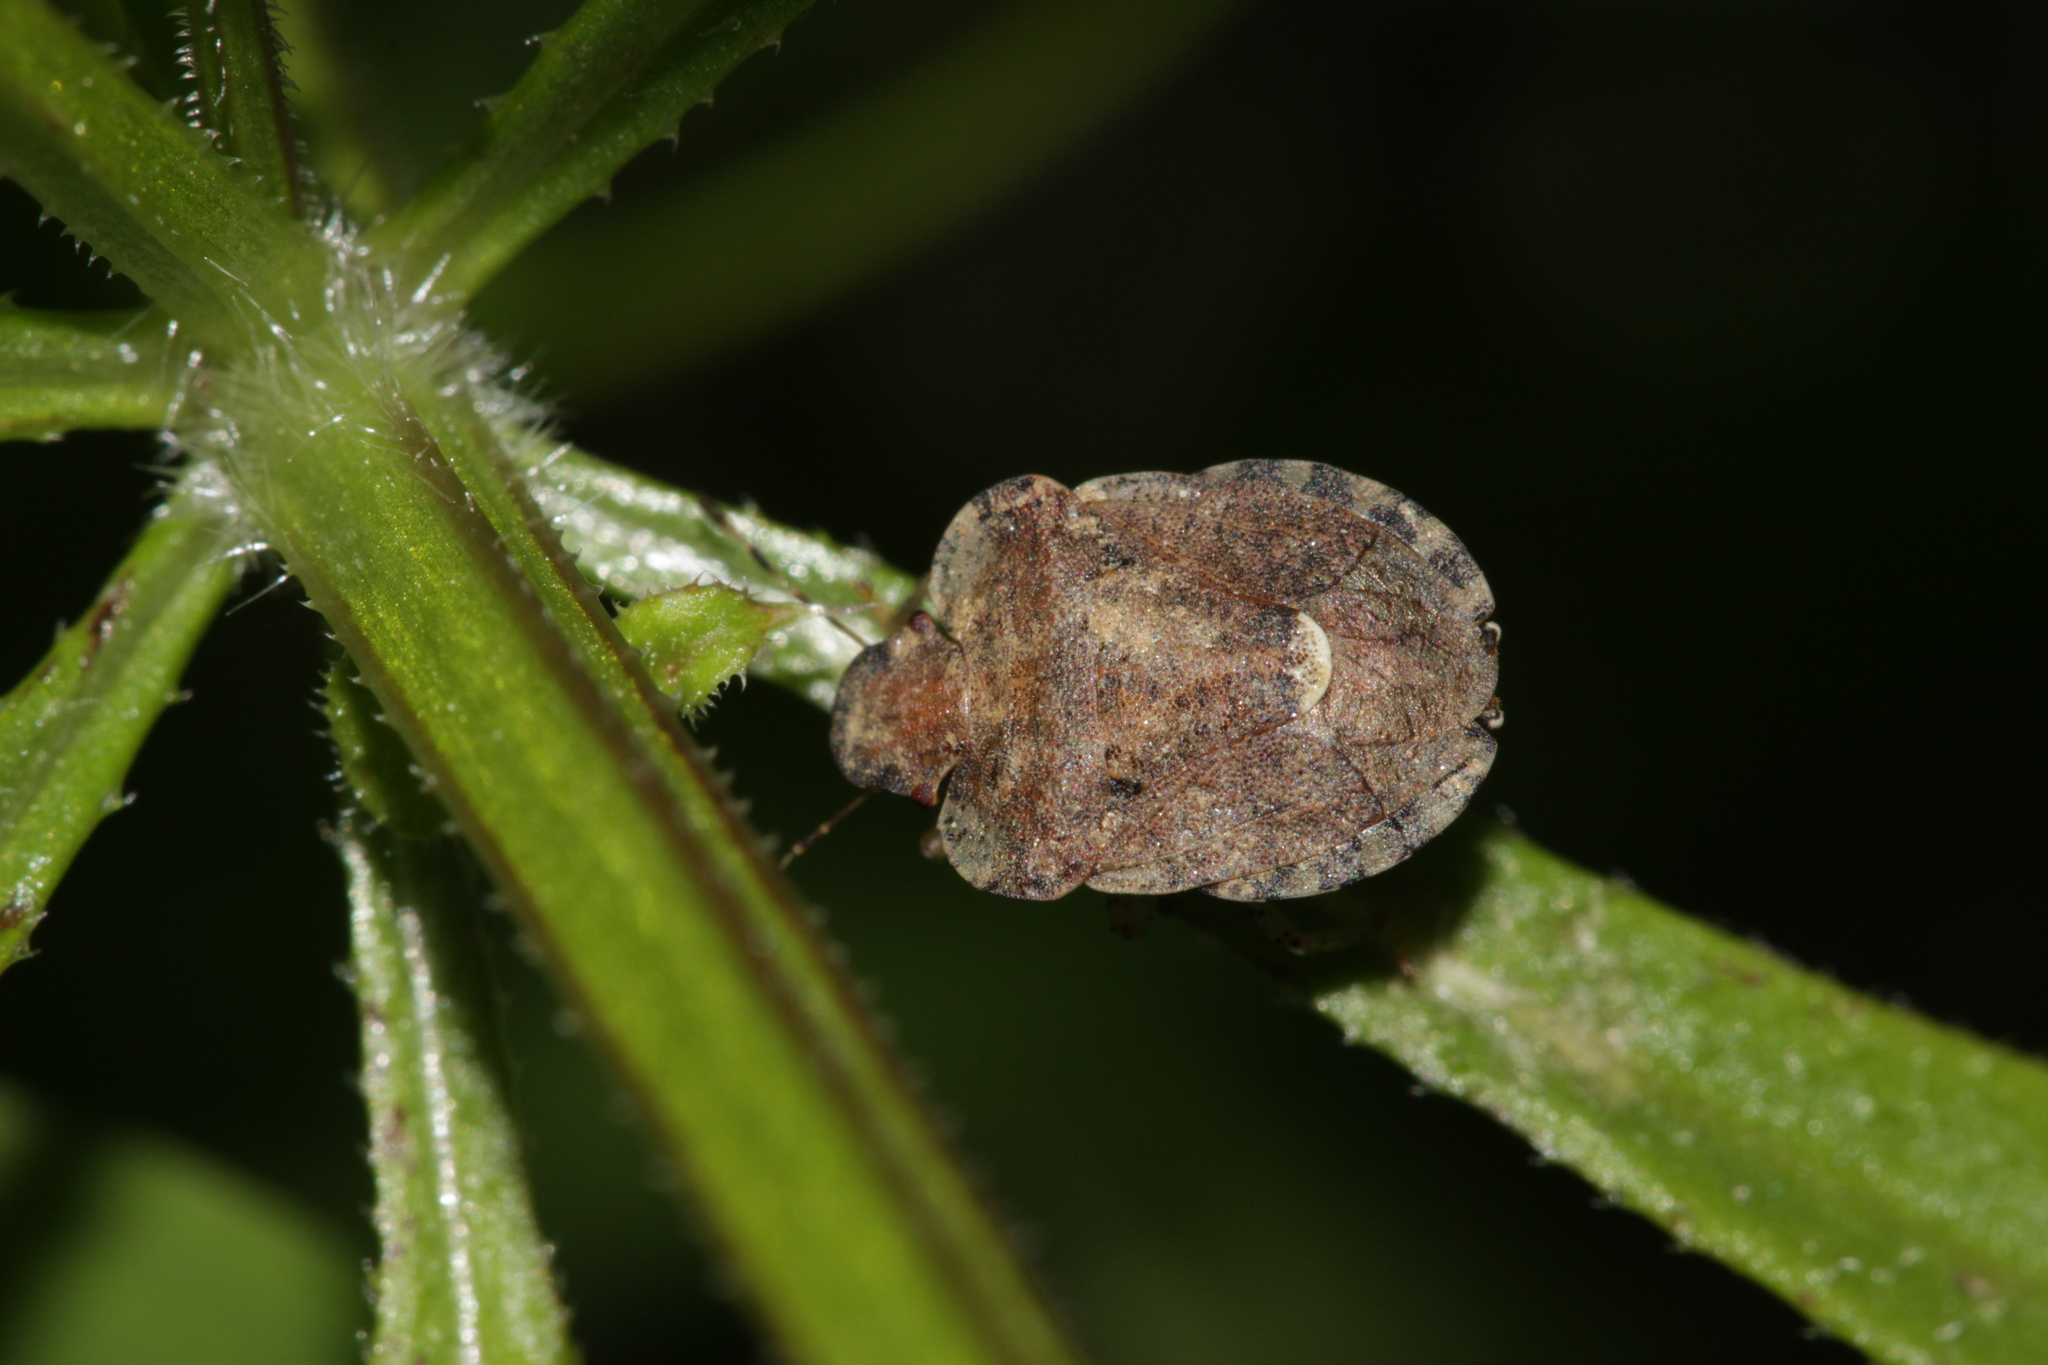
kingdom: Animalia
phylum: Arthropoda
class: Insecta
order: Hemiptera
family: Pentatomidae
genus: Dyroderes
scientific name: Dyroderes umbraculatus
